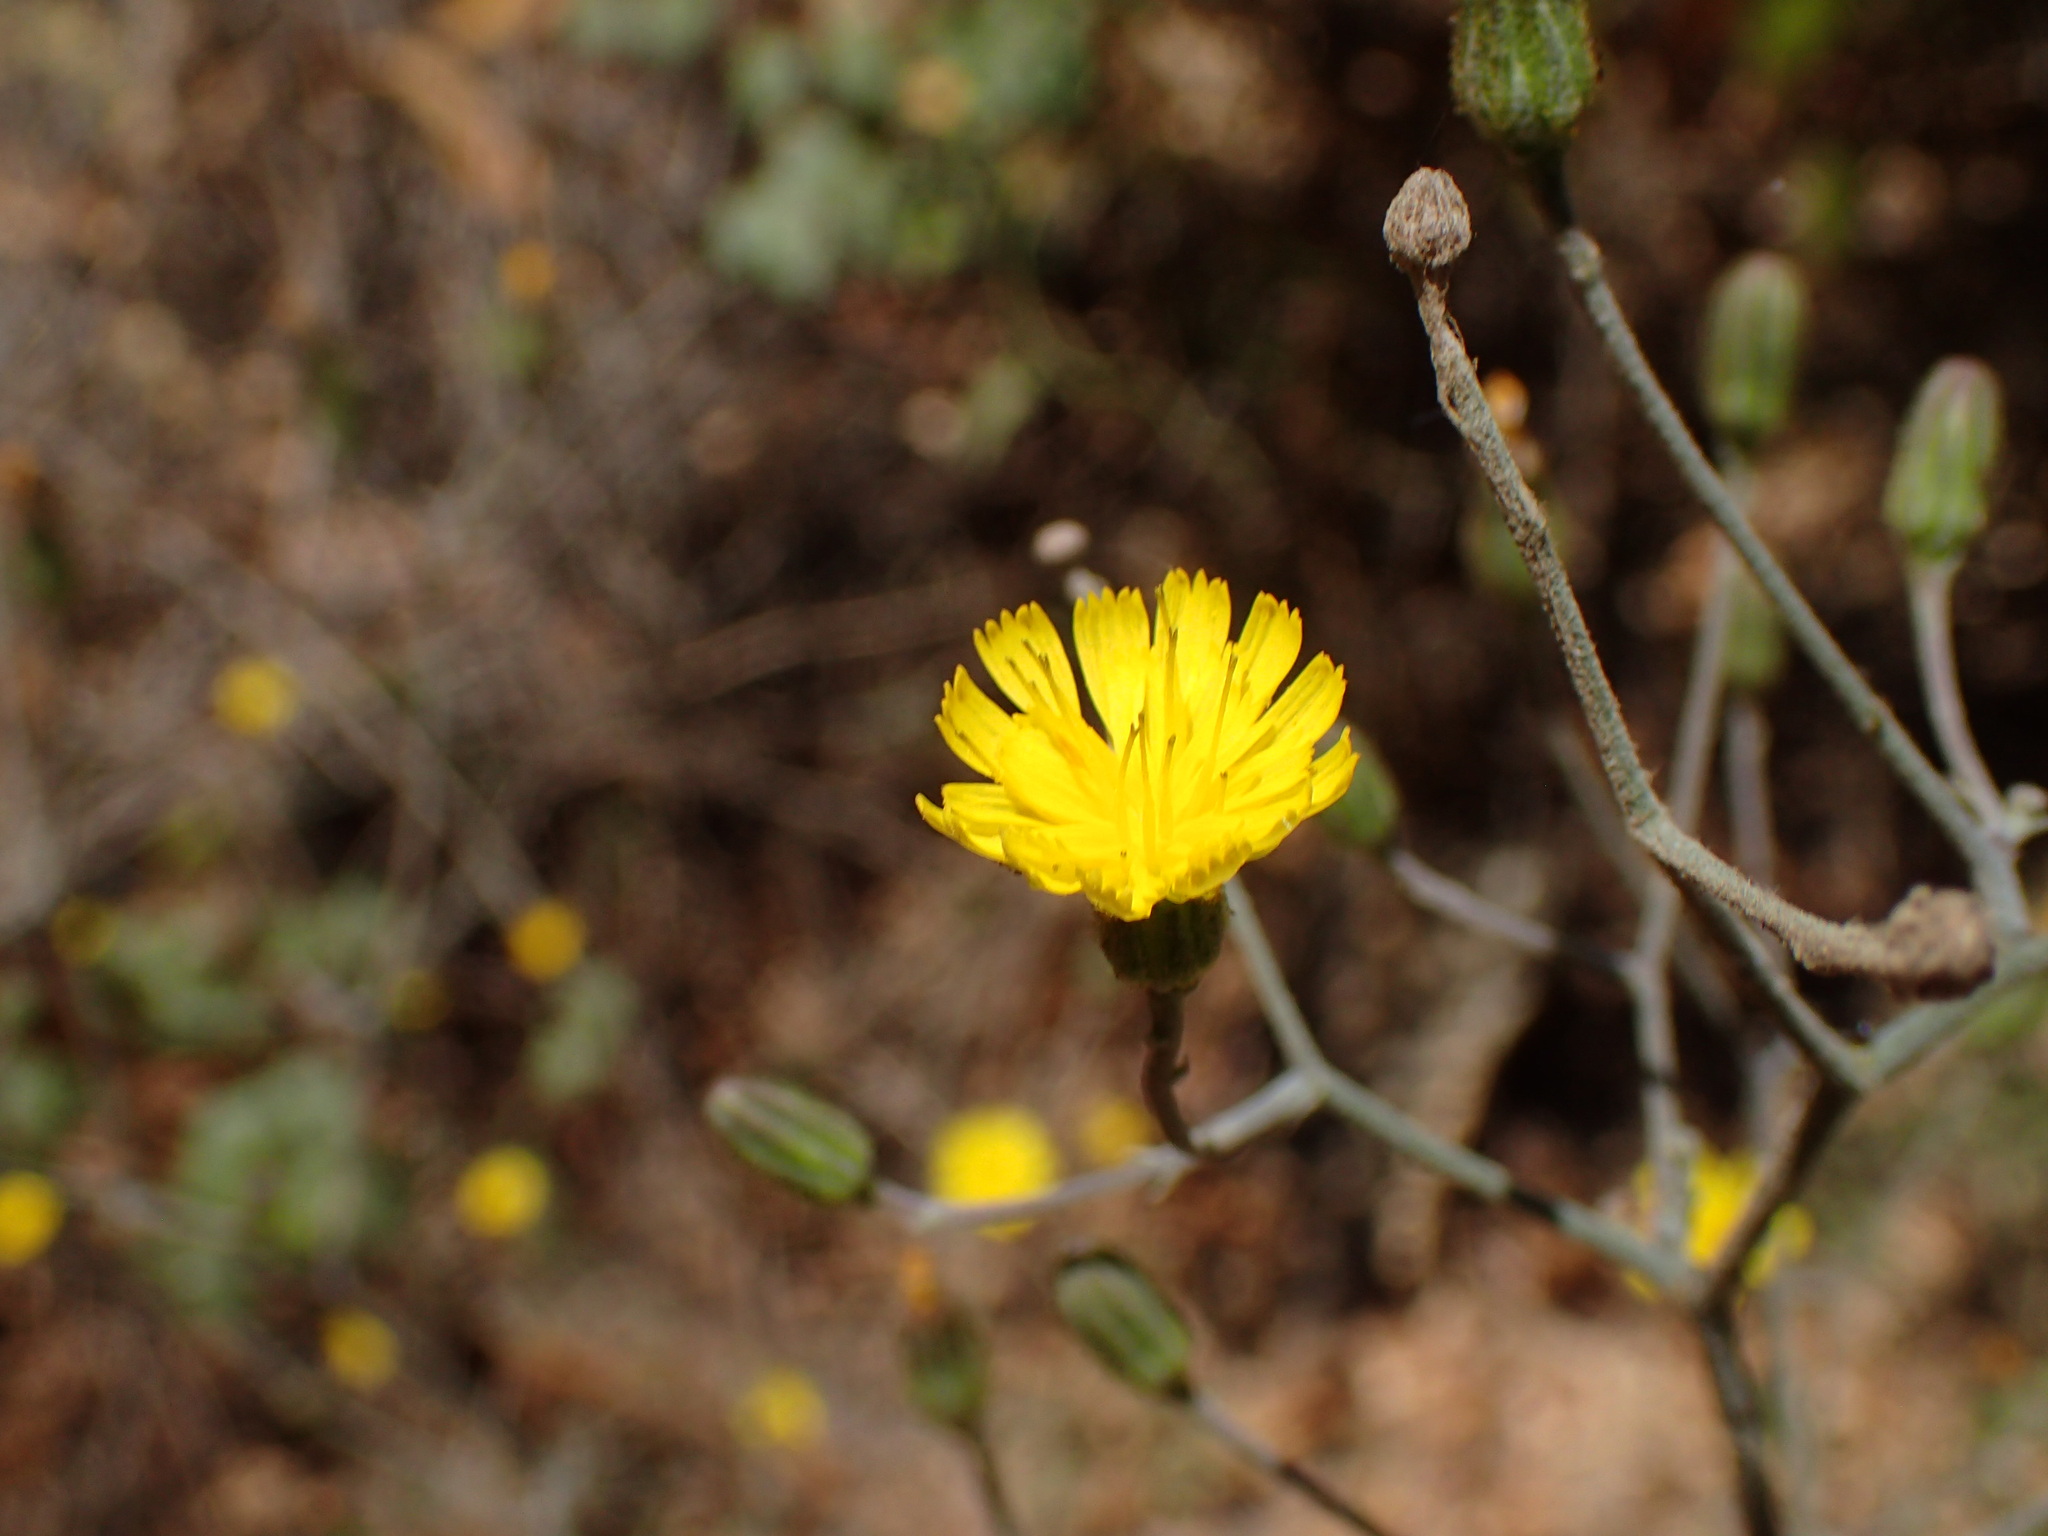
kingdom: Plantae
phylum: Tracheophyta
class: Magnoliopsida
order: Asterales
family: Asteraceae
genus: Hieracium
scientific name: Hieracium argutum
